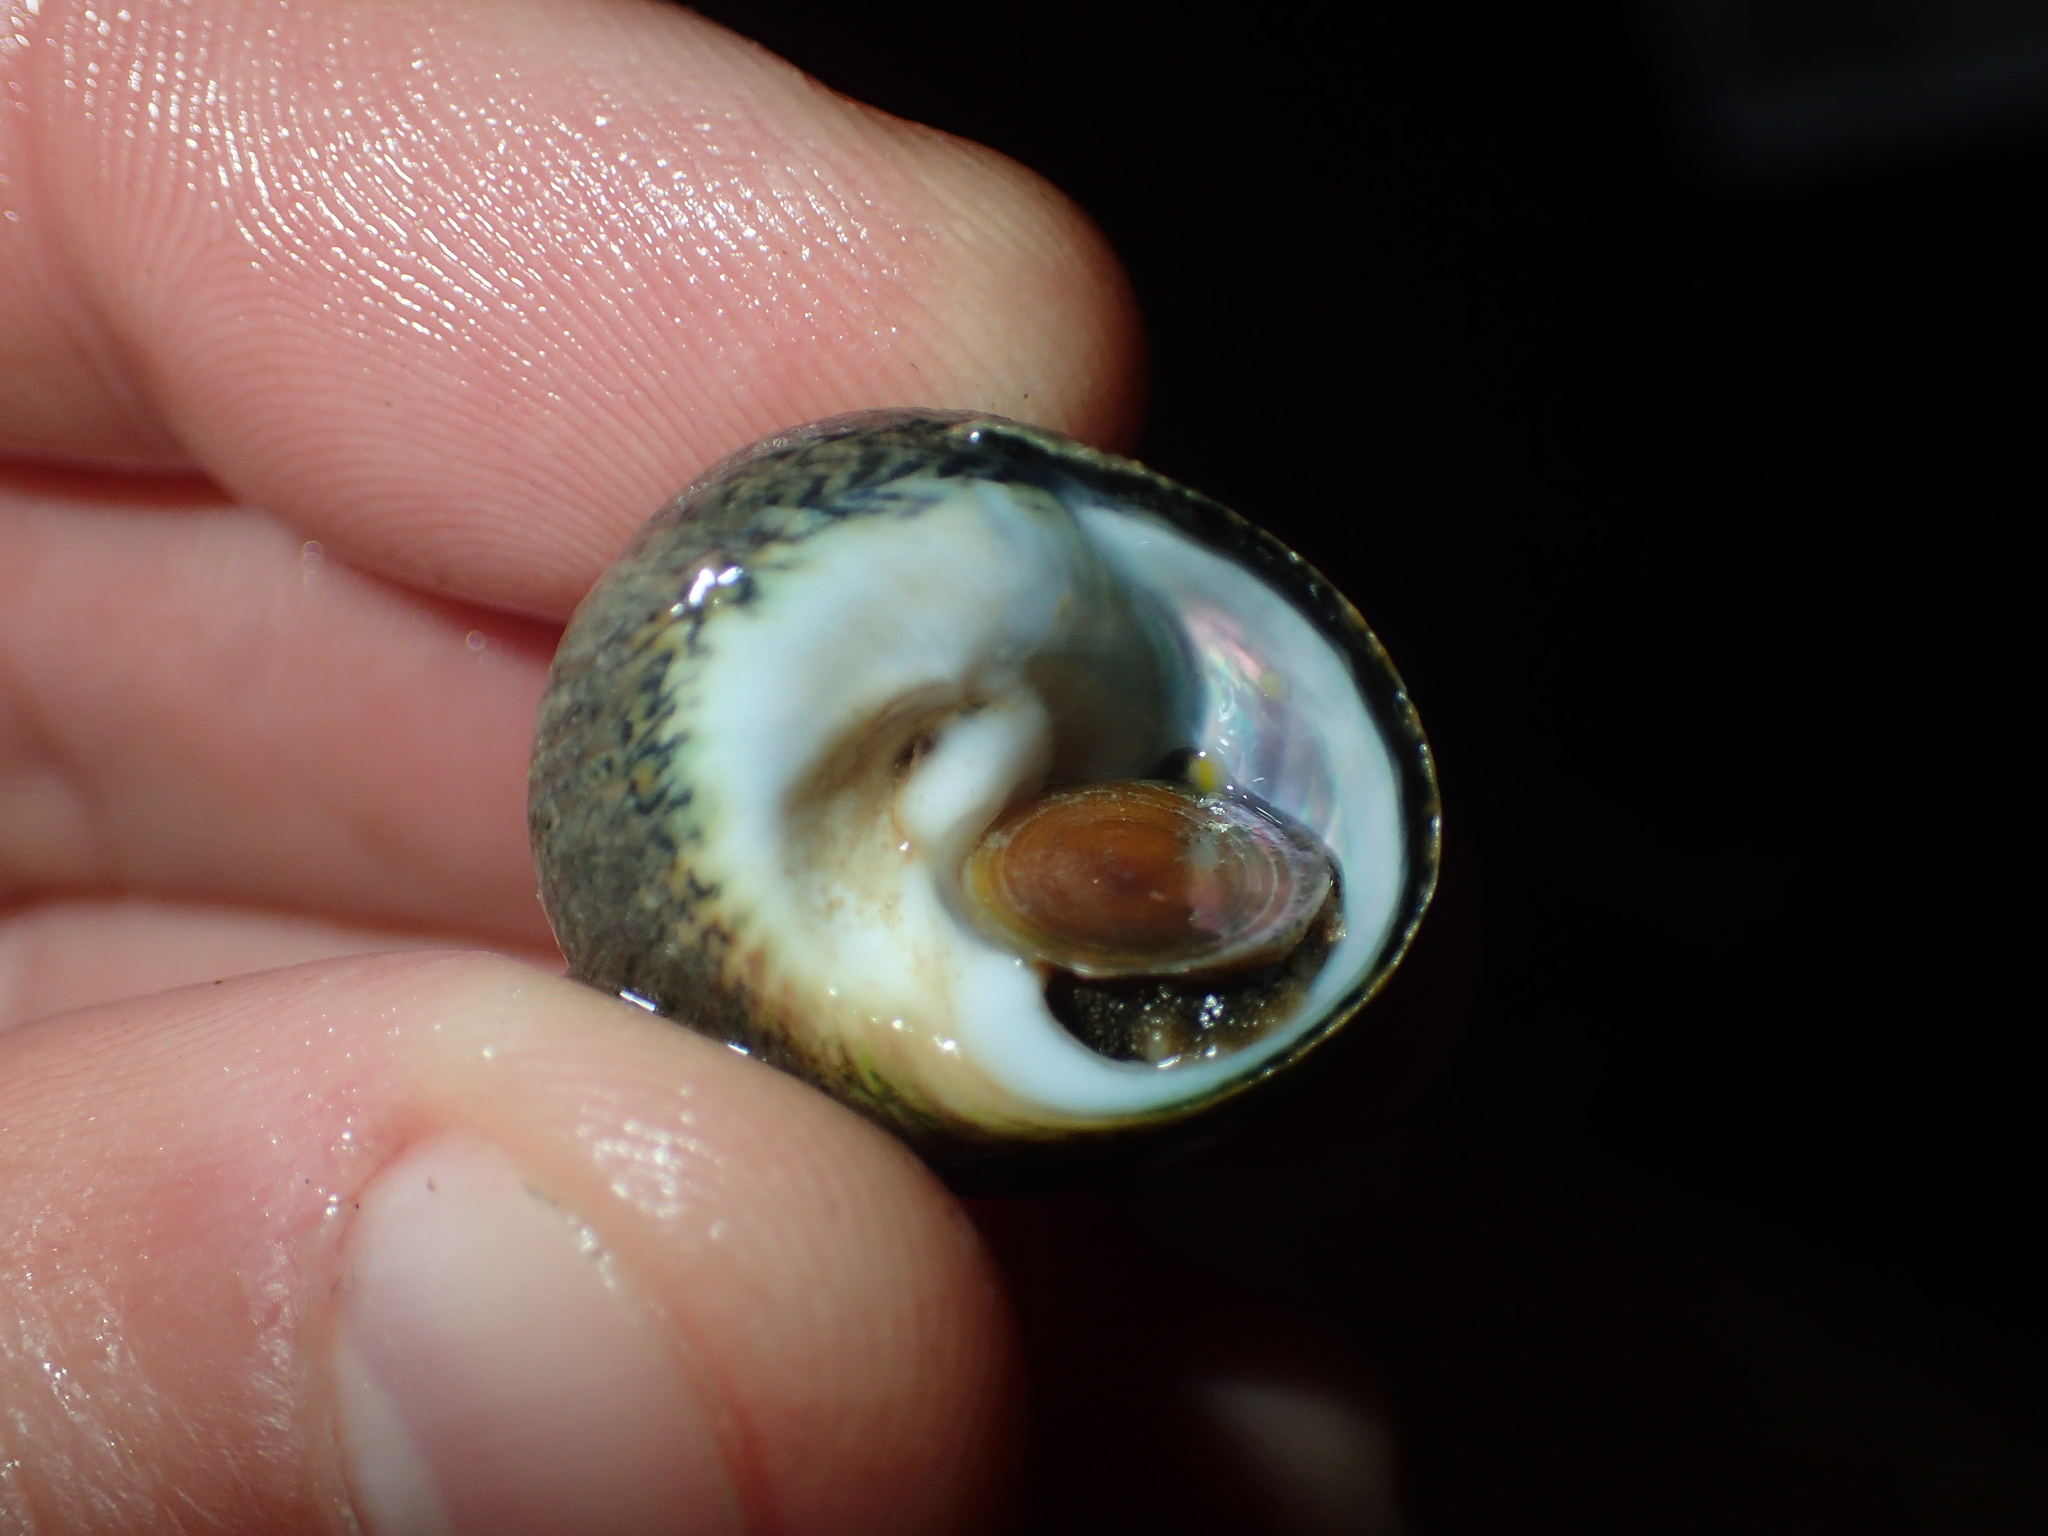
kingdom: Animalia
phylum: Mollusca
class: Gastropoda
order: Trochida
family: Trochidae
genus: Phorcus
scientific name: Phorcus lineatus
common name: Toothed top shell
